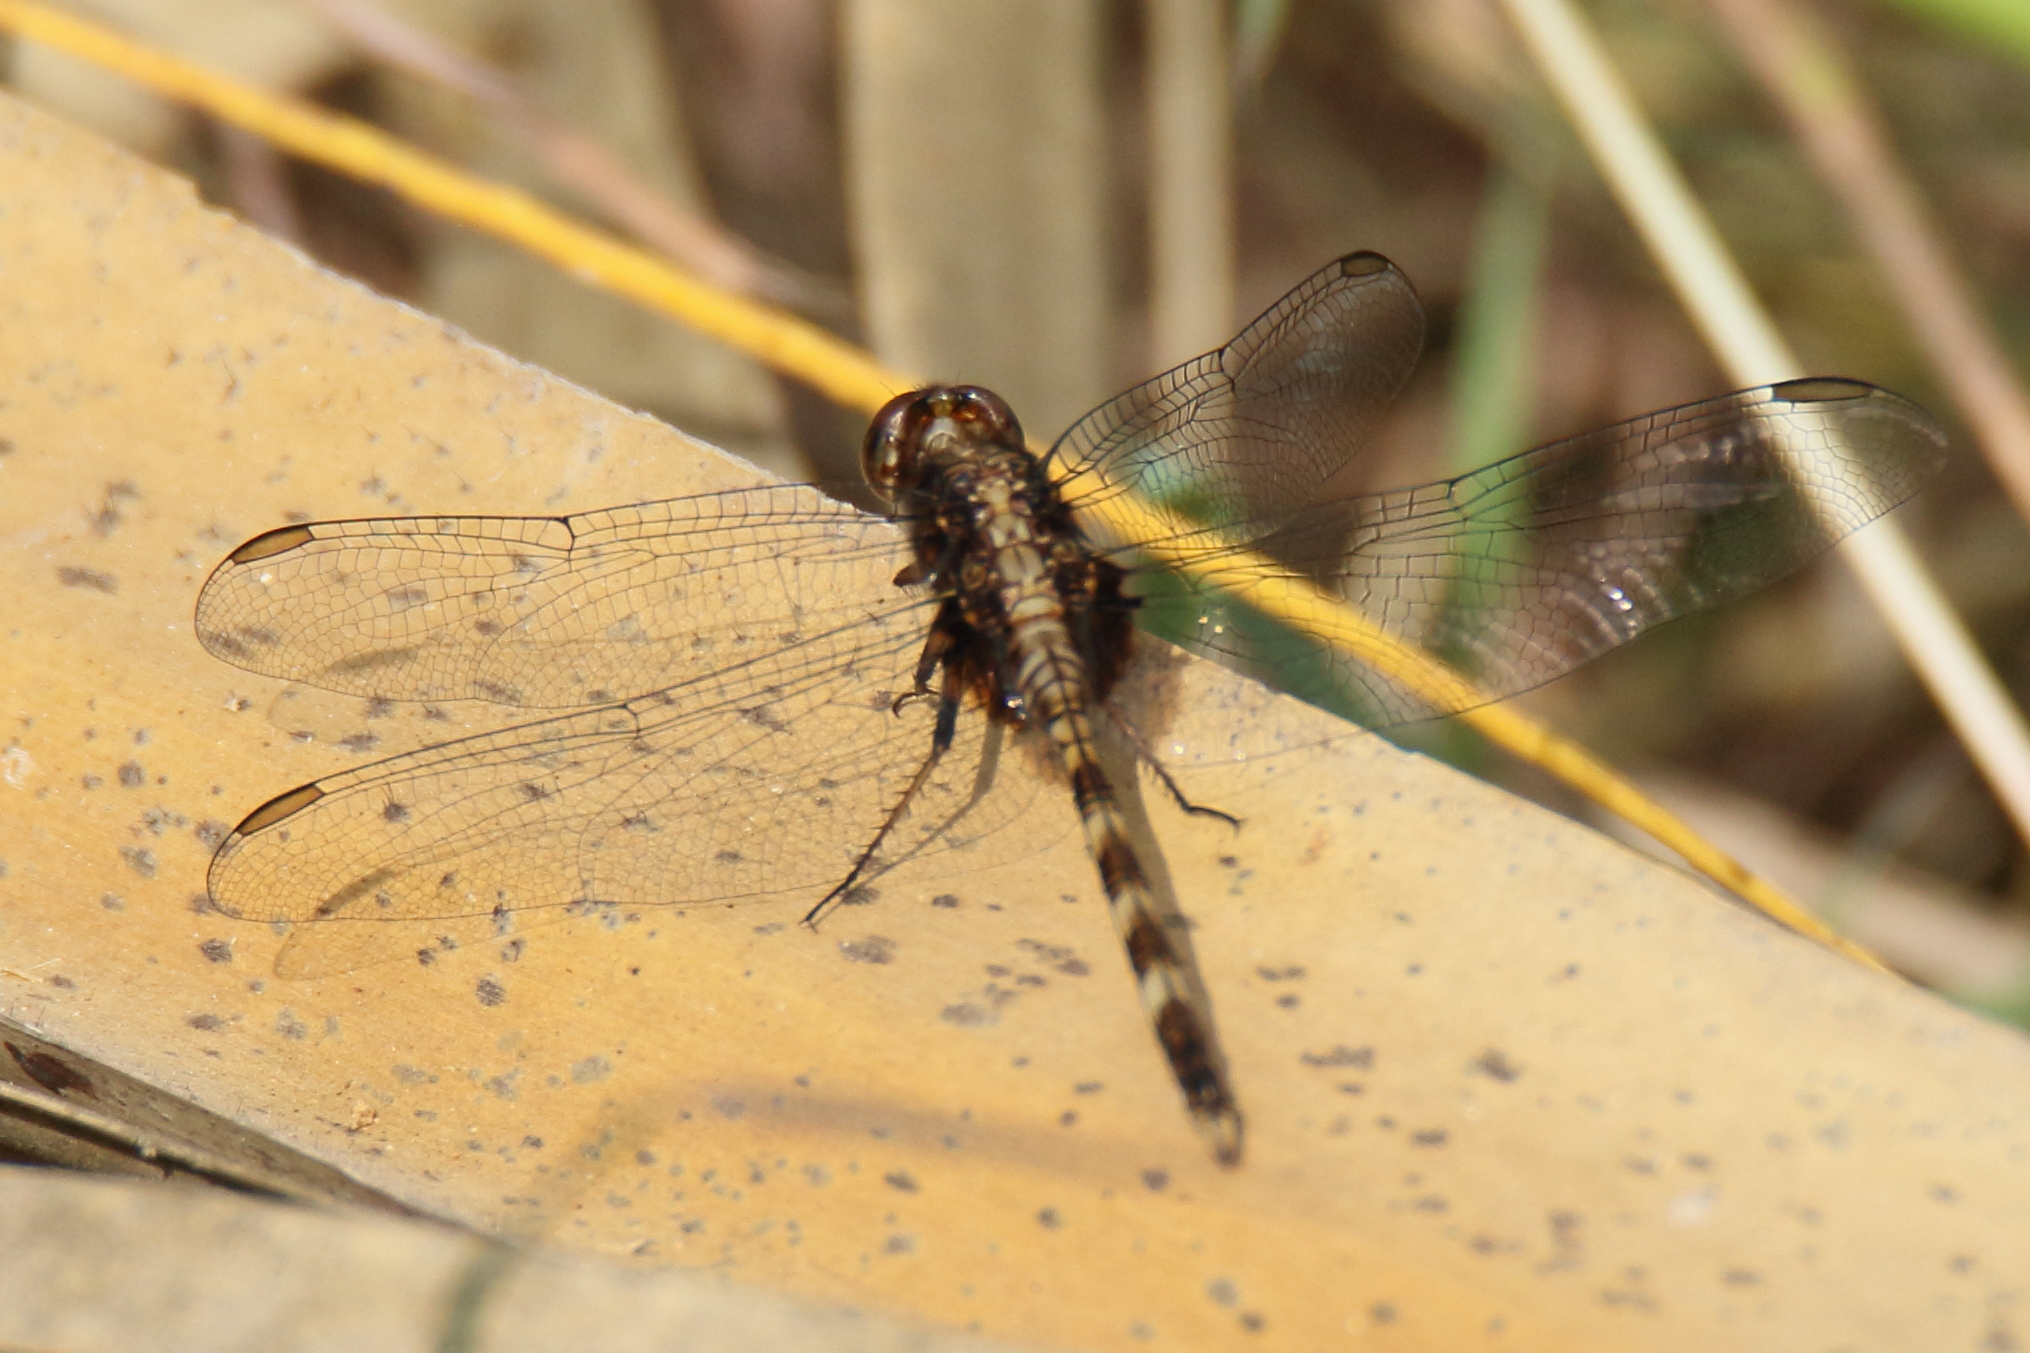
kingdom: Animalia
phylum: Arthropoda
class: Insecta
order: Odonata
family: Libellulidae
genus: Erythemis
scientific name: Erythemis plebeja
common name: Pin-tailed pondhawk
